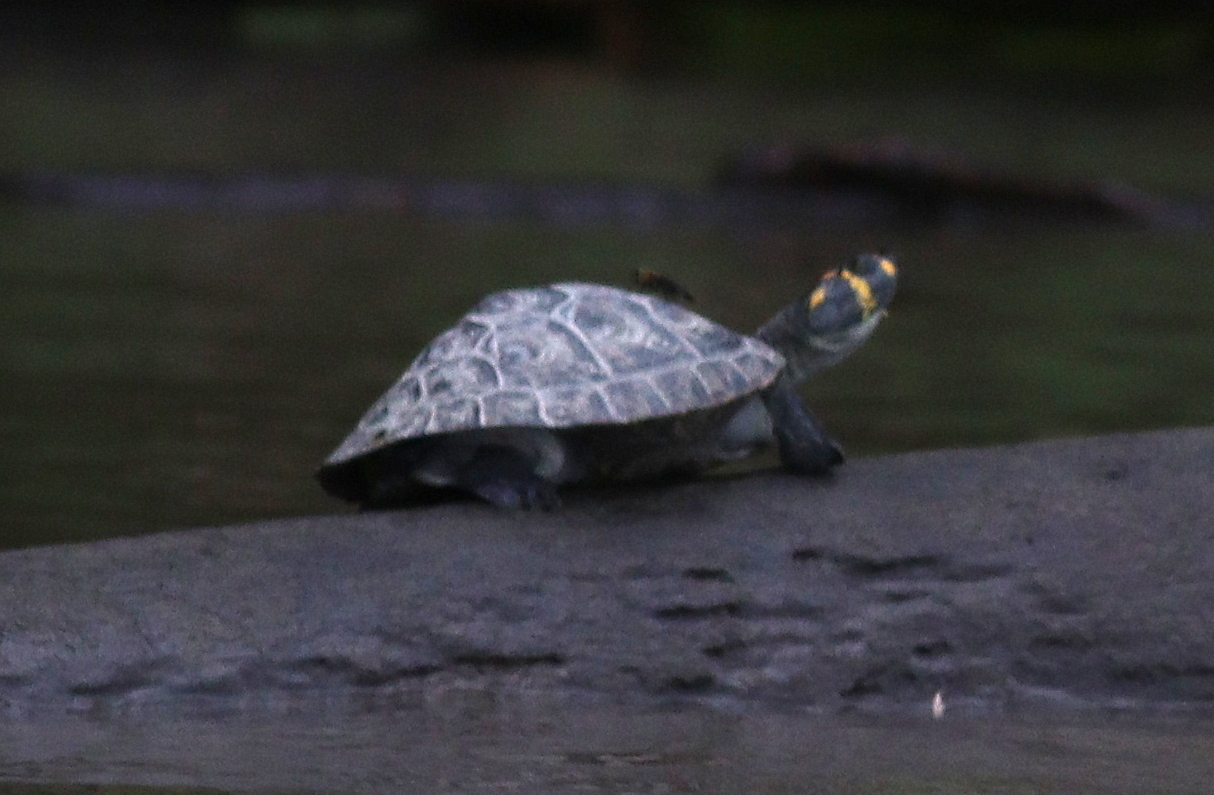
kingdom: Animalia
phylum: Chordata
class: Testudines
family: Podocnemididae
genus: Podocnemis
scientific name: Podocnemis unifilis
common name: Yellow-spotted amazon river turtle
